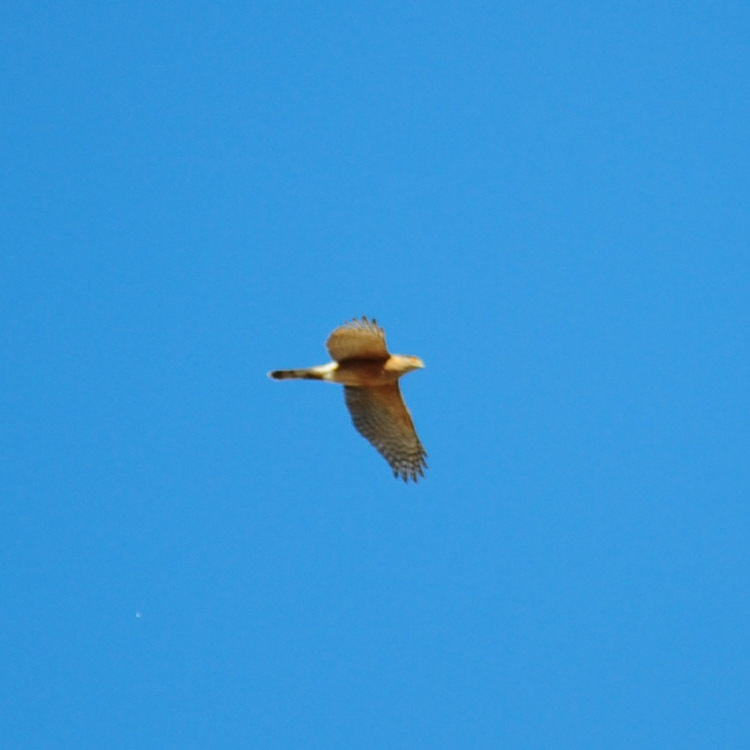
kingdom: Animalia
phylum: Chordata
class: Aves
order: Accipitriformes
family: Accipitridae
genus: Accipiter
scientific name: Accipiter cooperii
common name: Cooper's hawk
